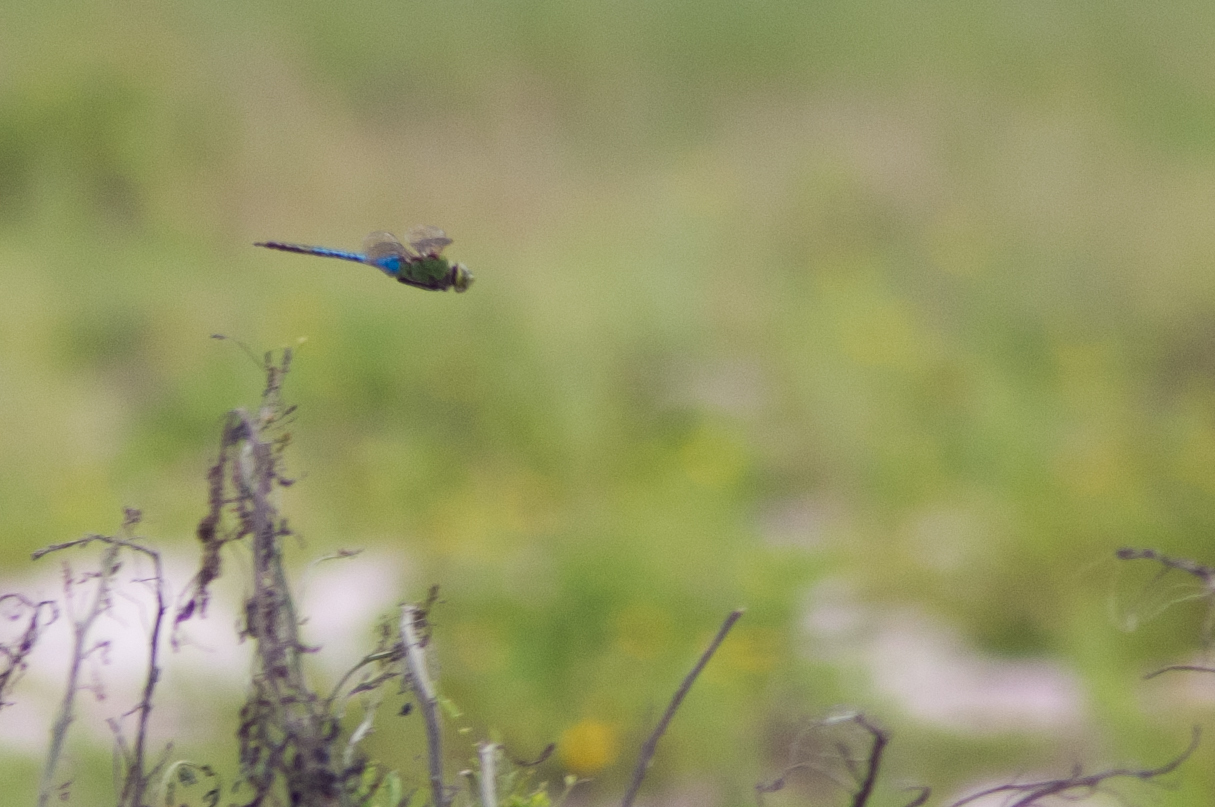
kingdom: Animalia
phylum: Arthropoda
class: Insecta
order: Odonata
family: Aeshnidae
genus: Anax
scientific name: Anax junius
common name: Common green darner
